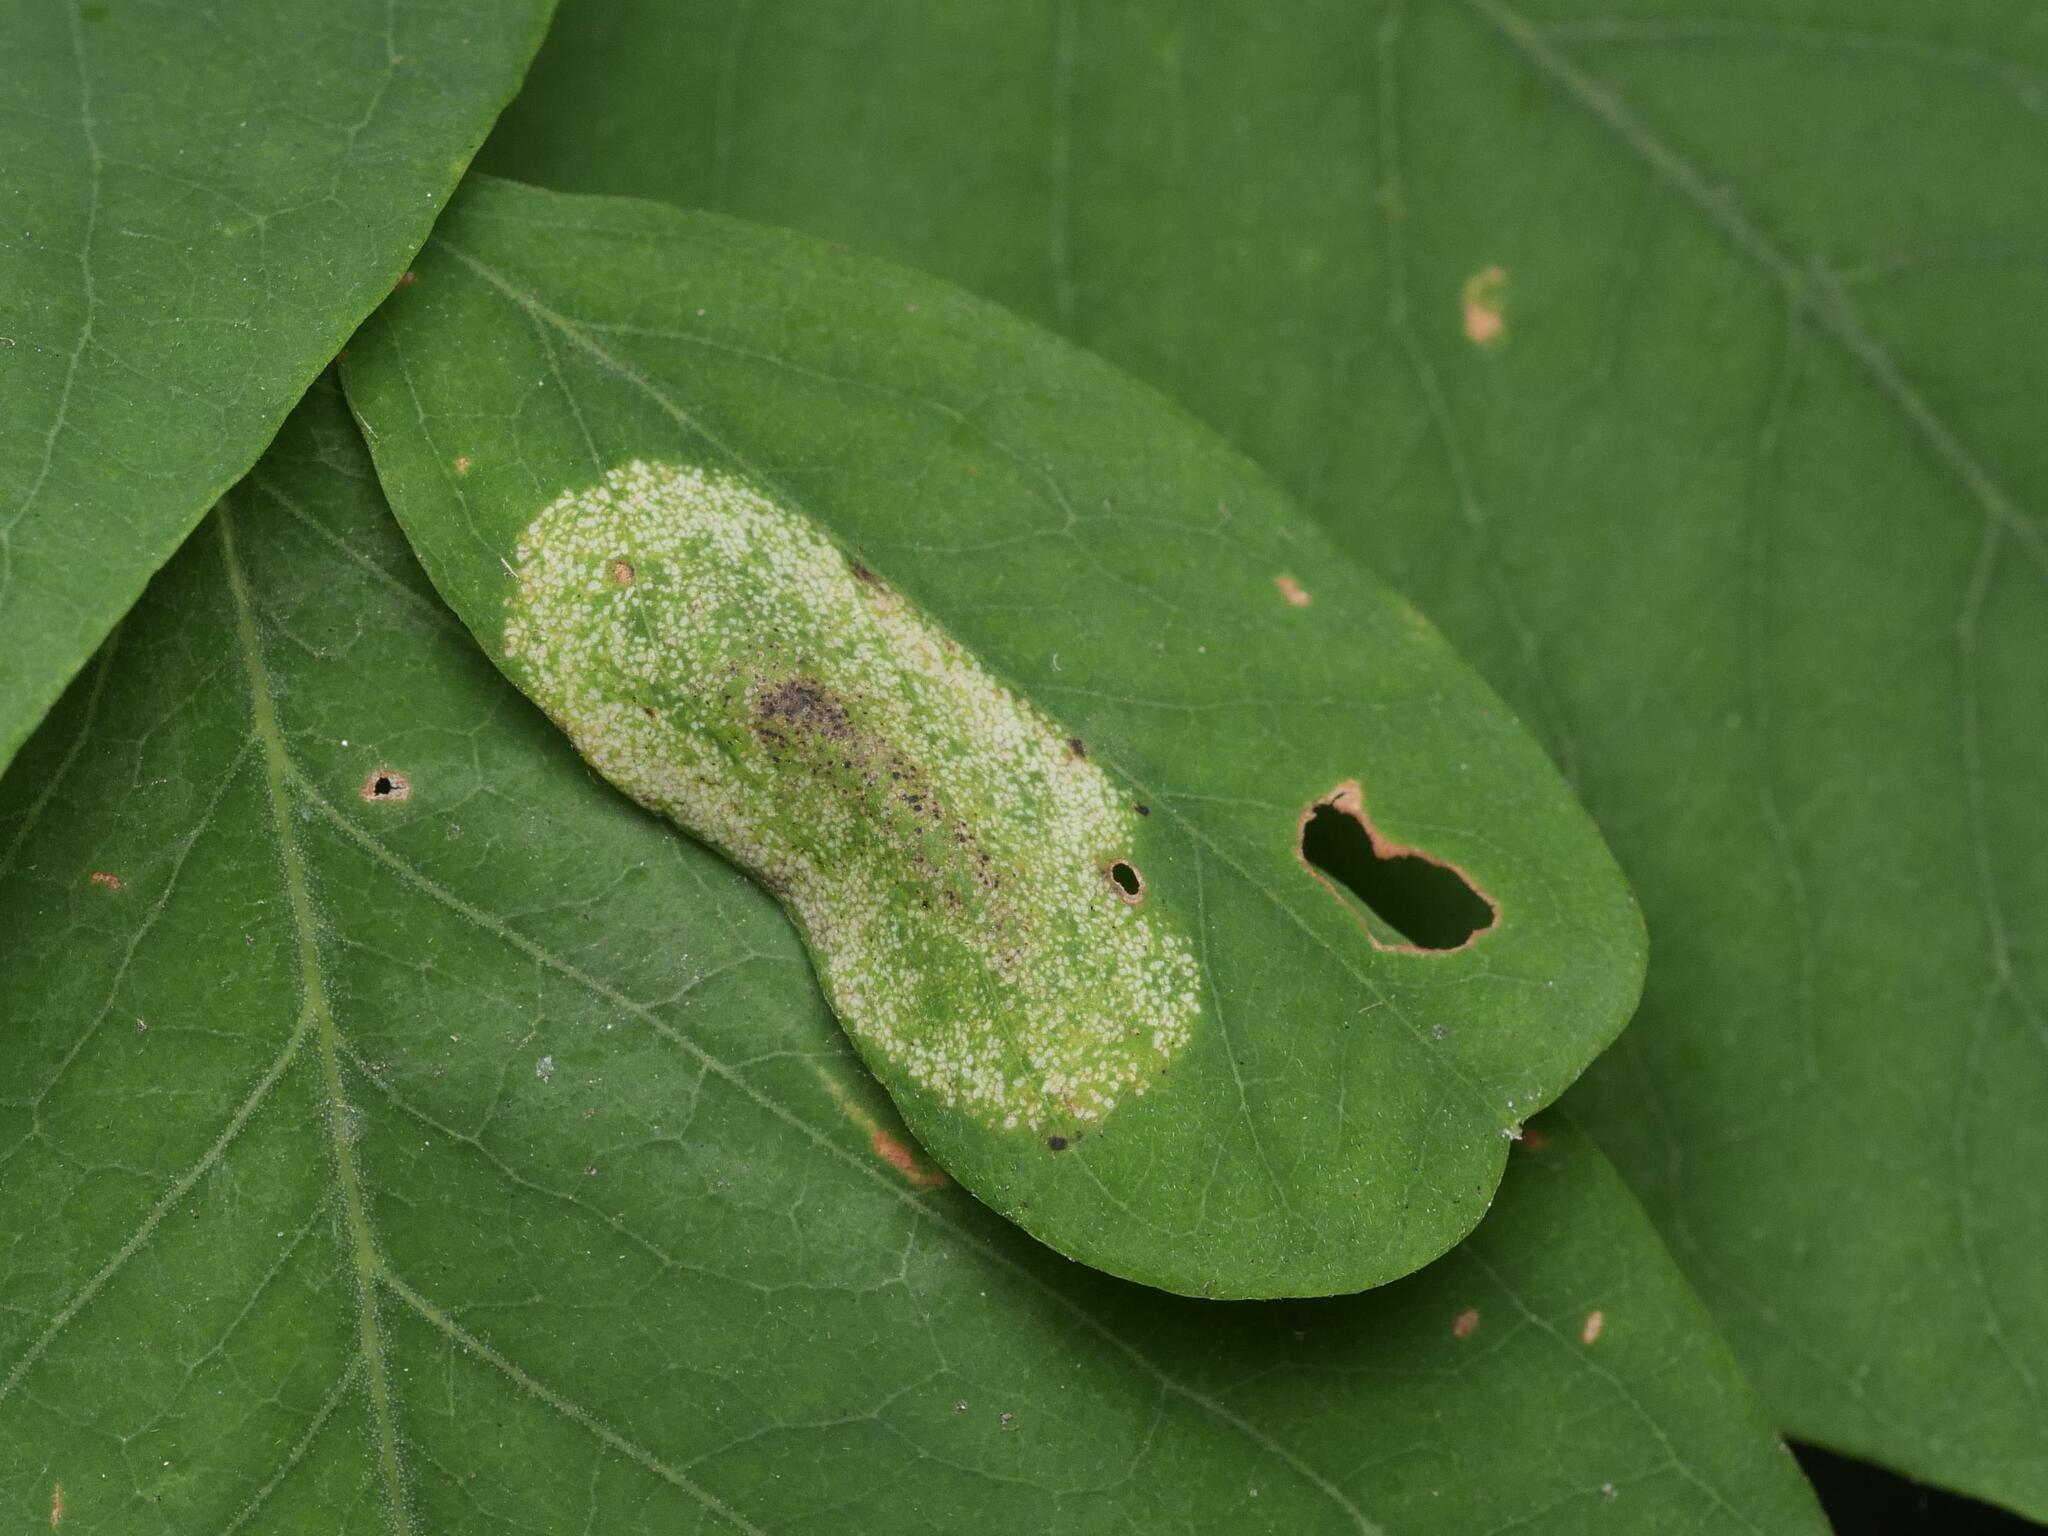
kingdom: Animalia
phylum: Arthropoda
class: Insecta
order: Lepidoptera
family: Gracillariidae
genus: Macrosaccus
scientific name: Macrosaccus robiniella
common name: Leaf blotch miner moth
